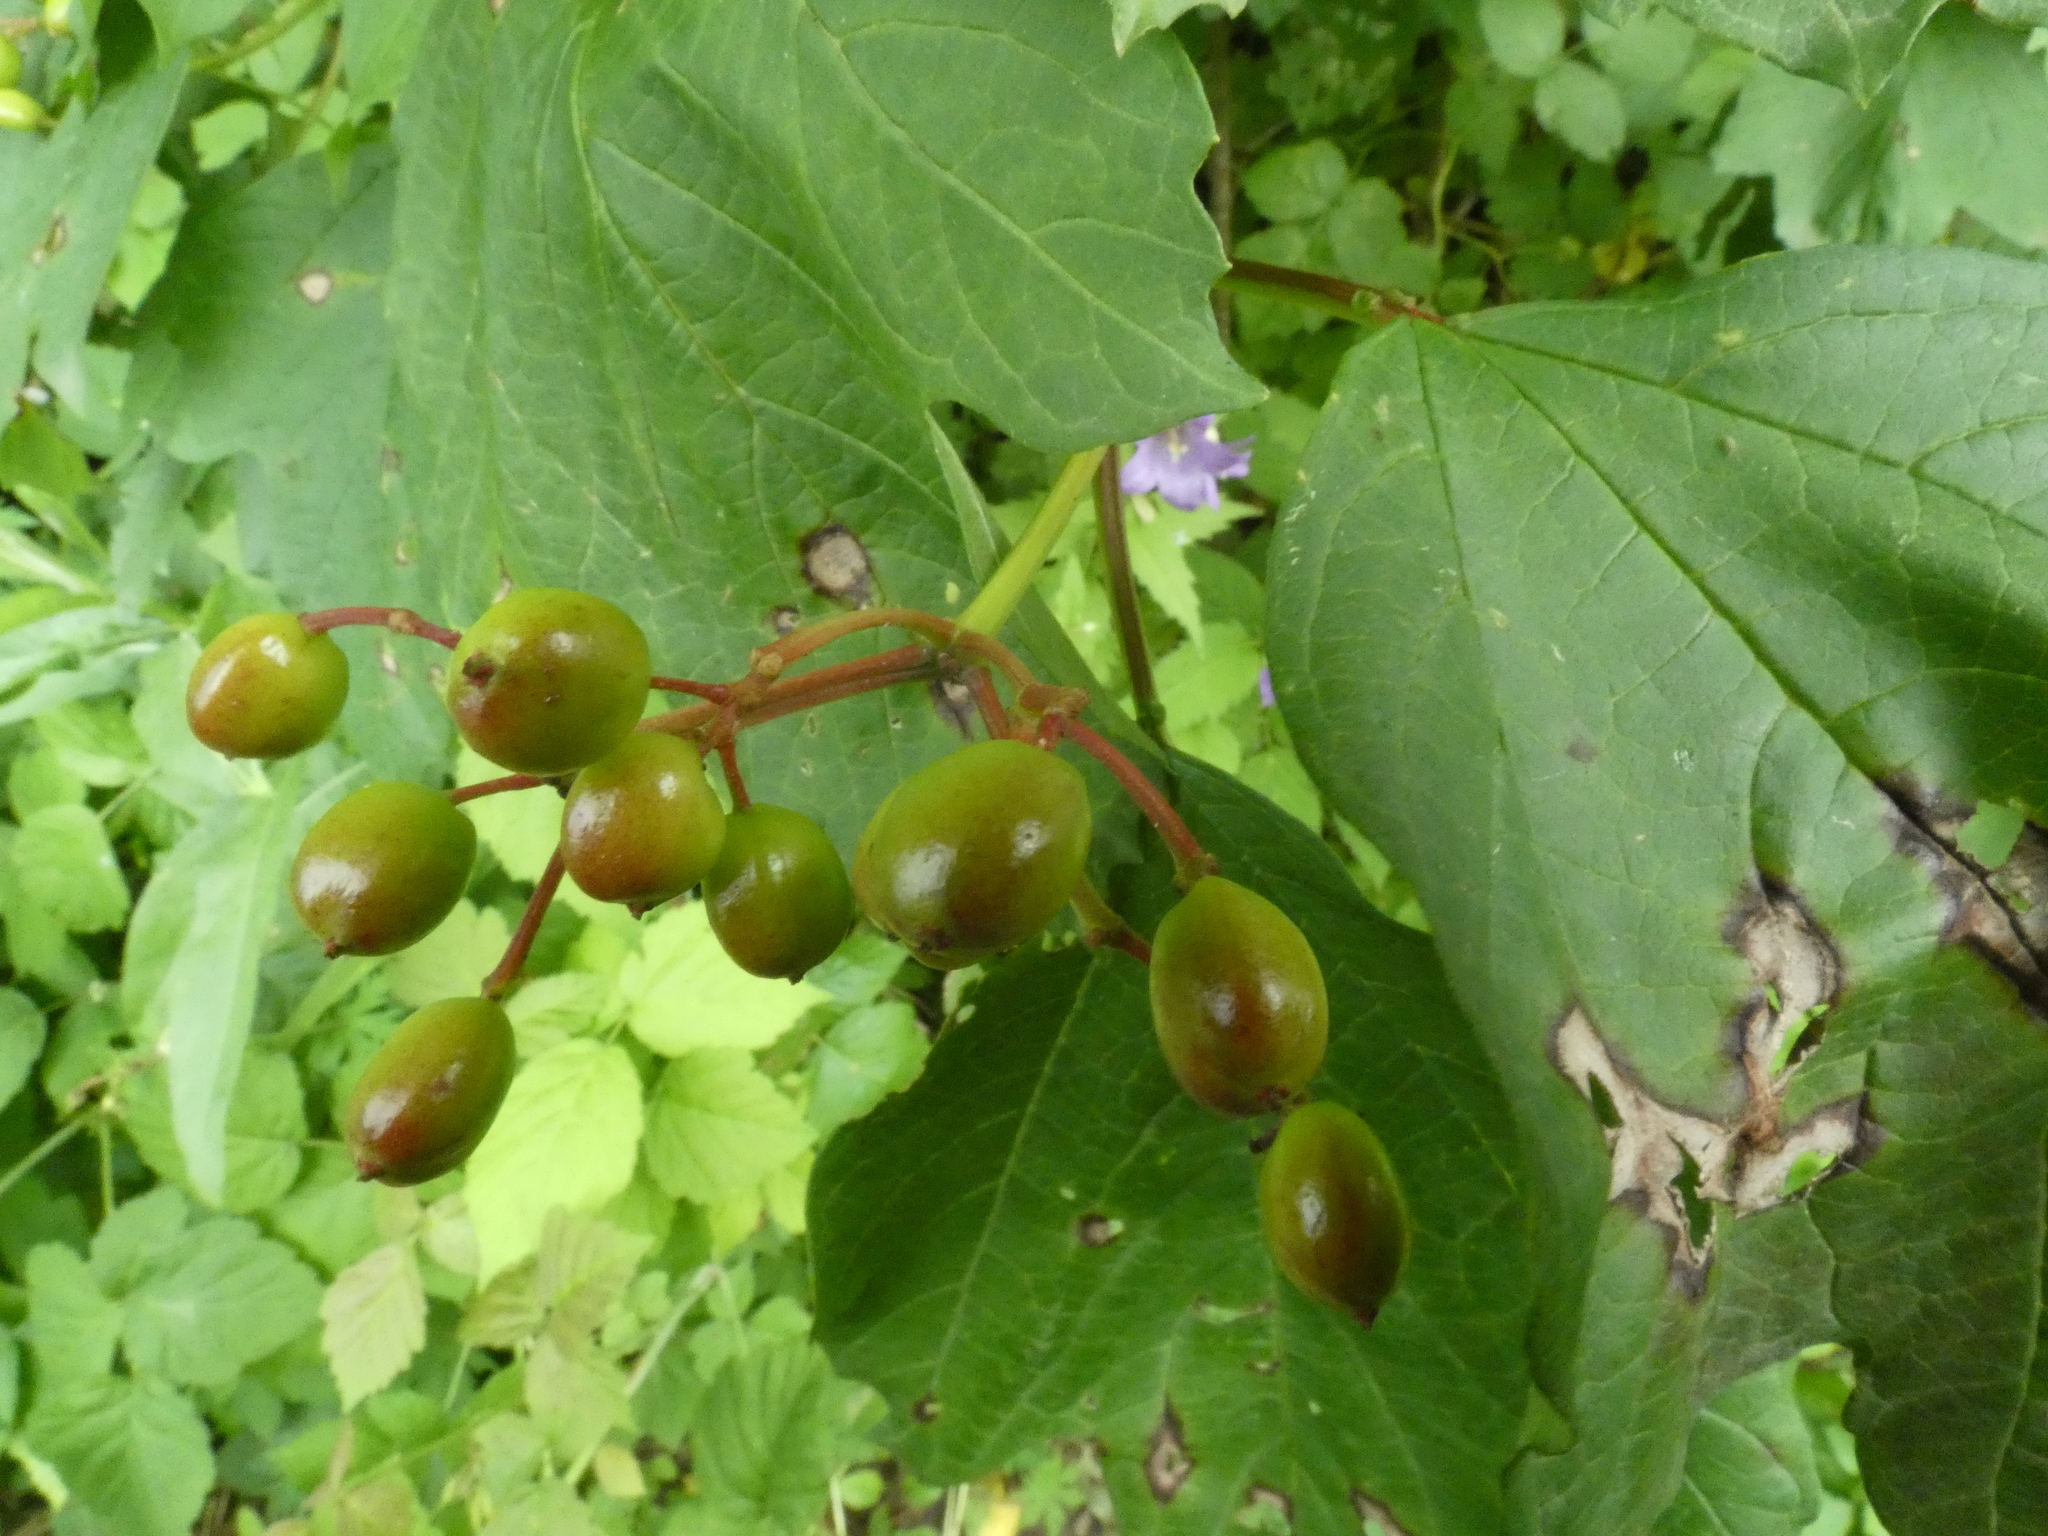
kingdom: Plantae
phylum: Tracheophyta
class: Magnoliopsida
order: Dipsacales
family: Viburnaceae
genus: Viburnum
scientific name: Viburnum opulus
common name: Guelder-rose
